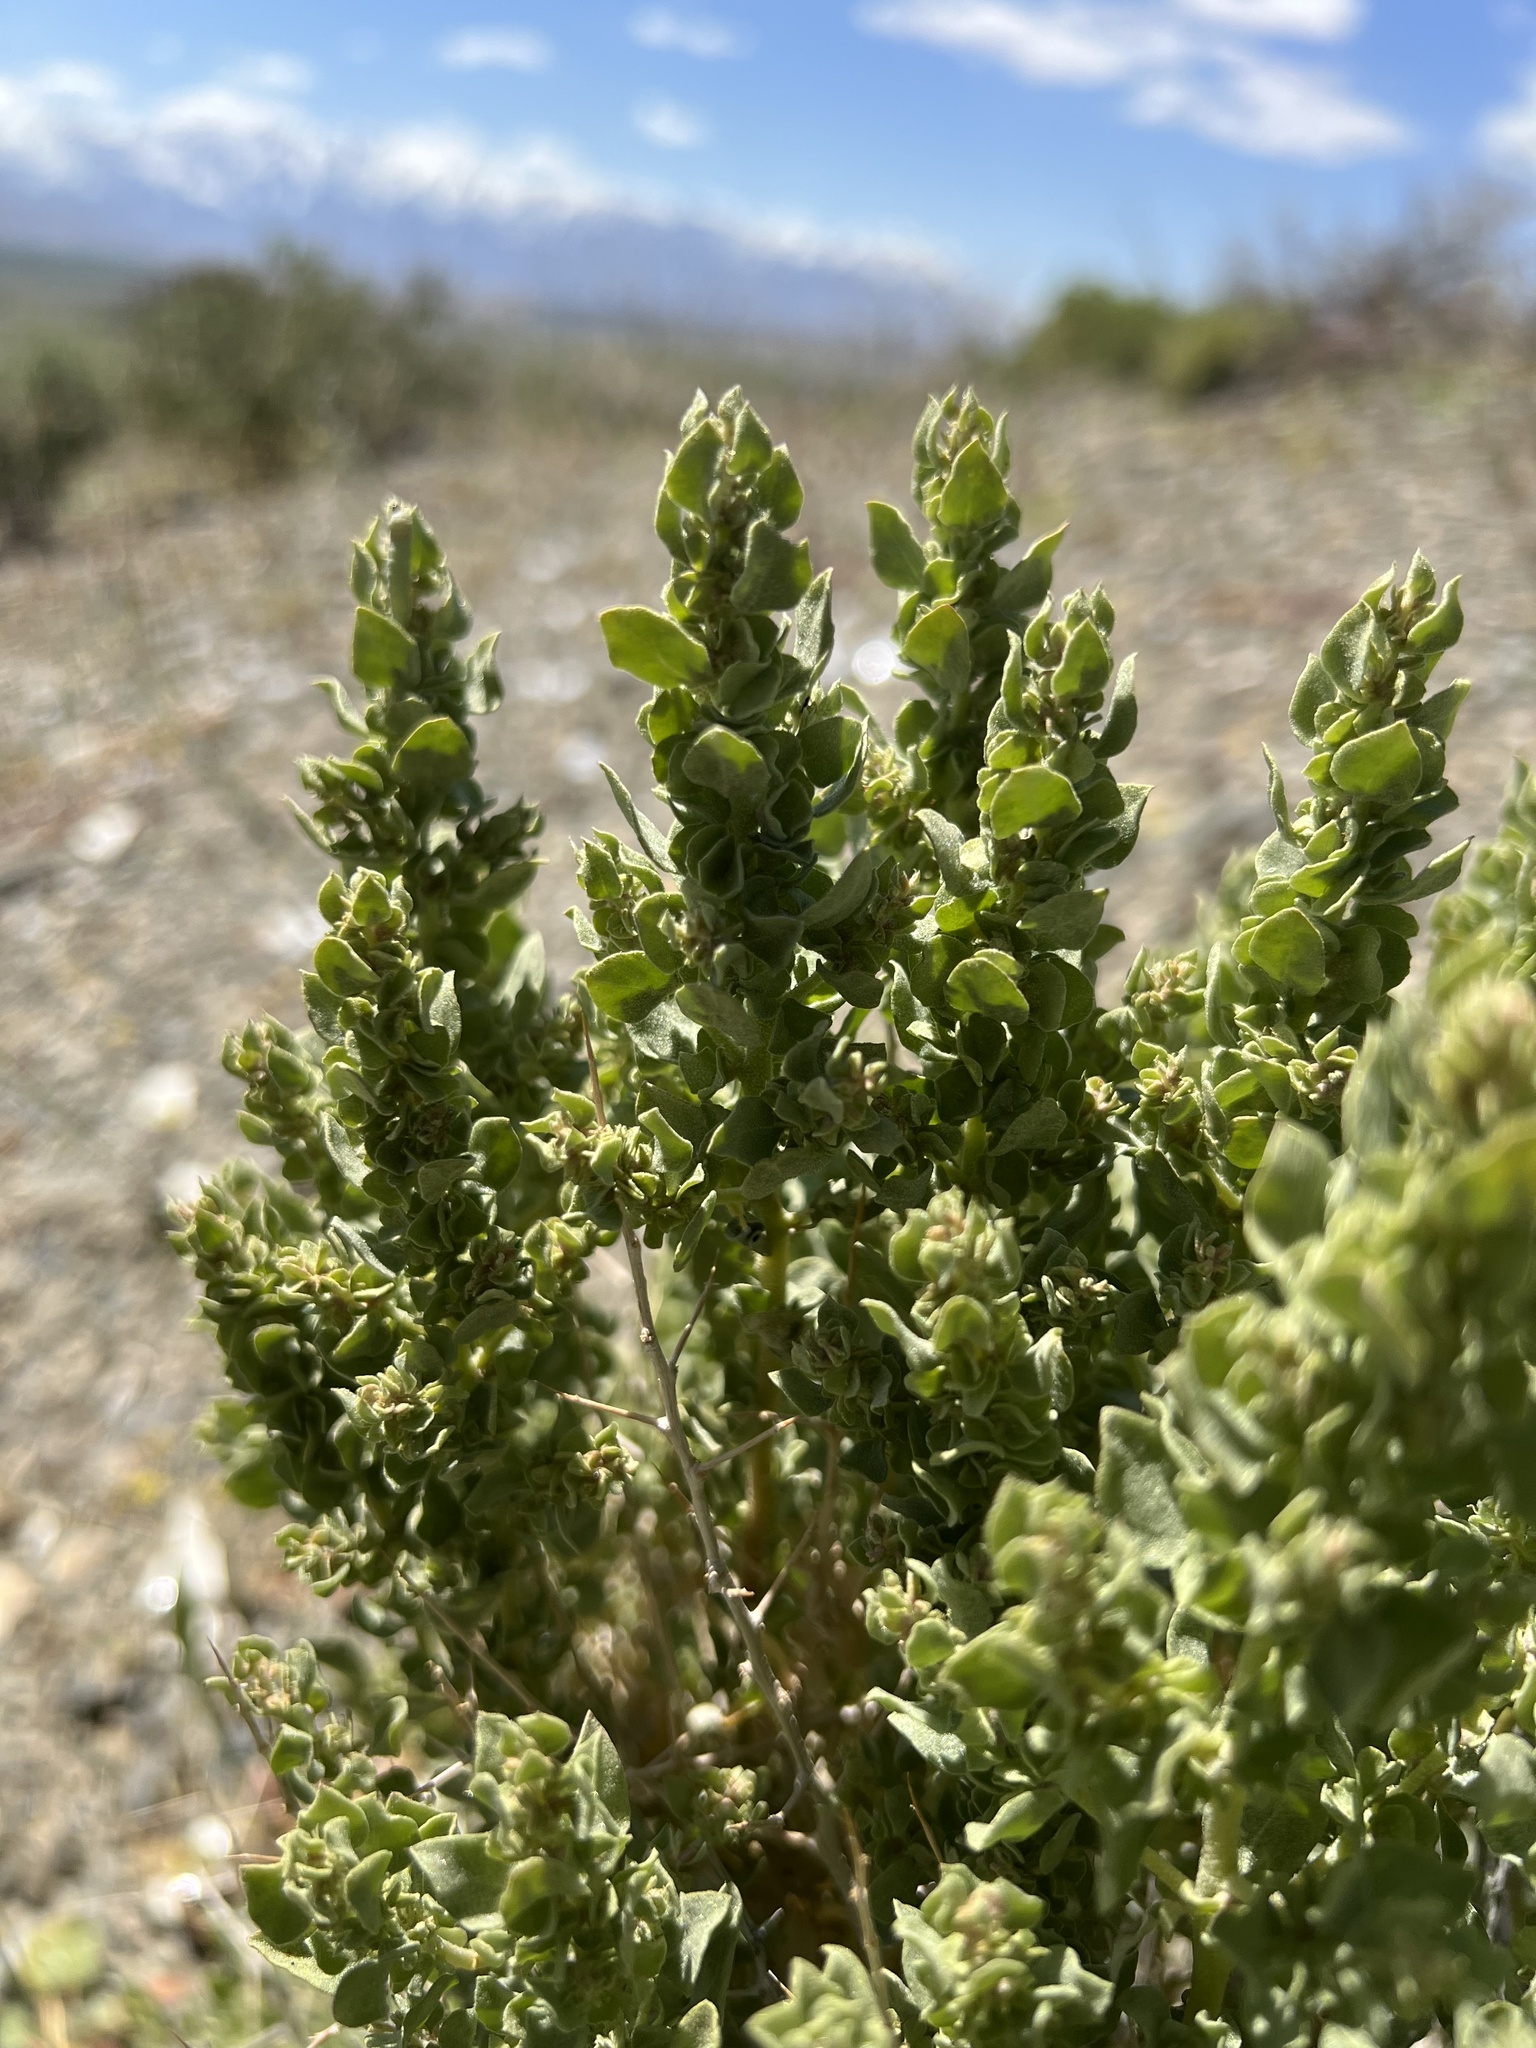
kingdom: Plantae
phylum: Tracheophyta
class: Magnoliopsida
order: Caryophyllales
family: Amaranthaceae
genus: Atriplex
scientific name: Atriplex confertifolia
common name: Shadscale
